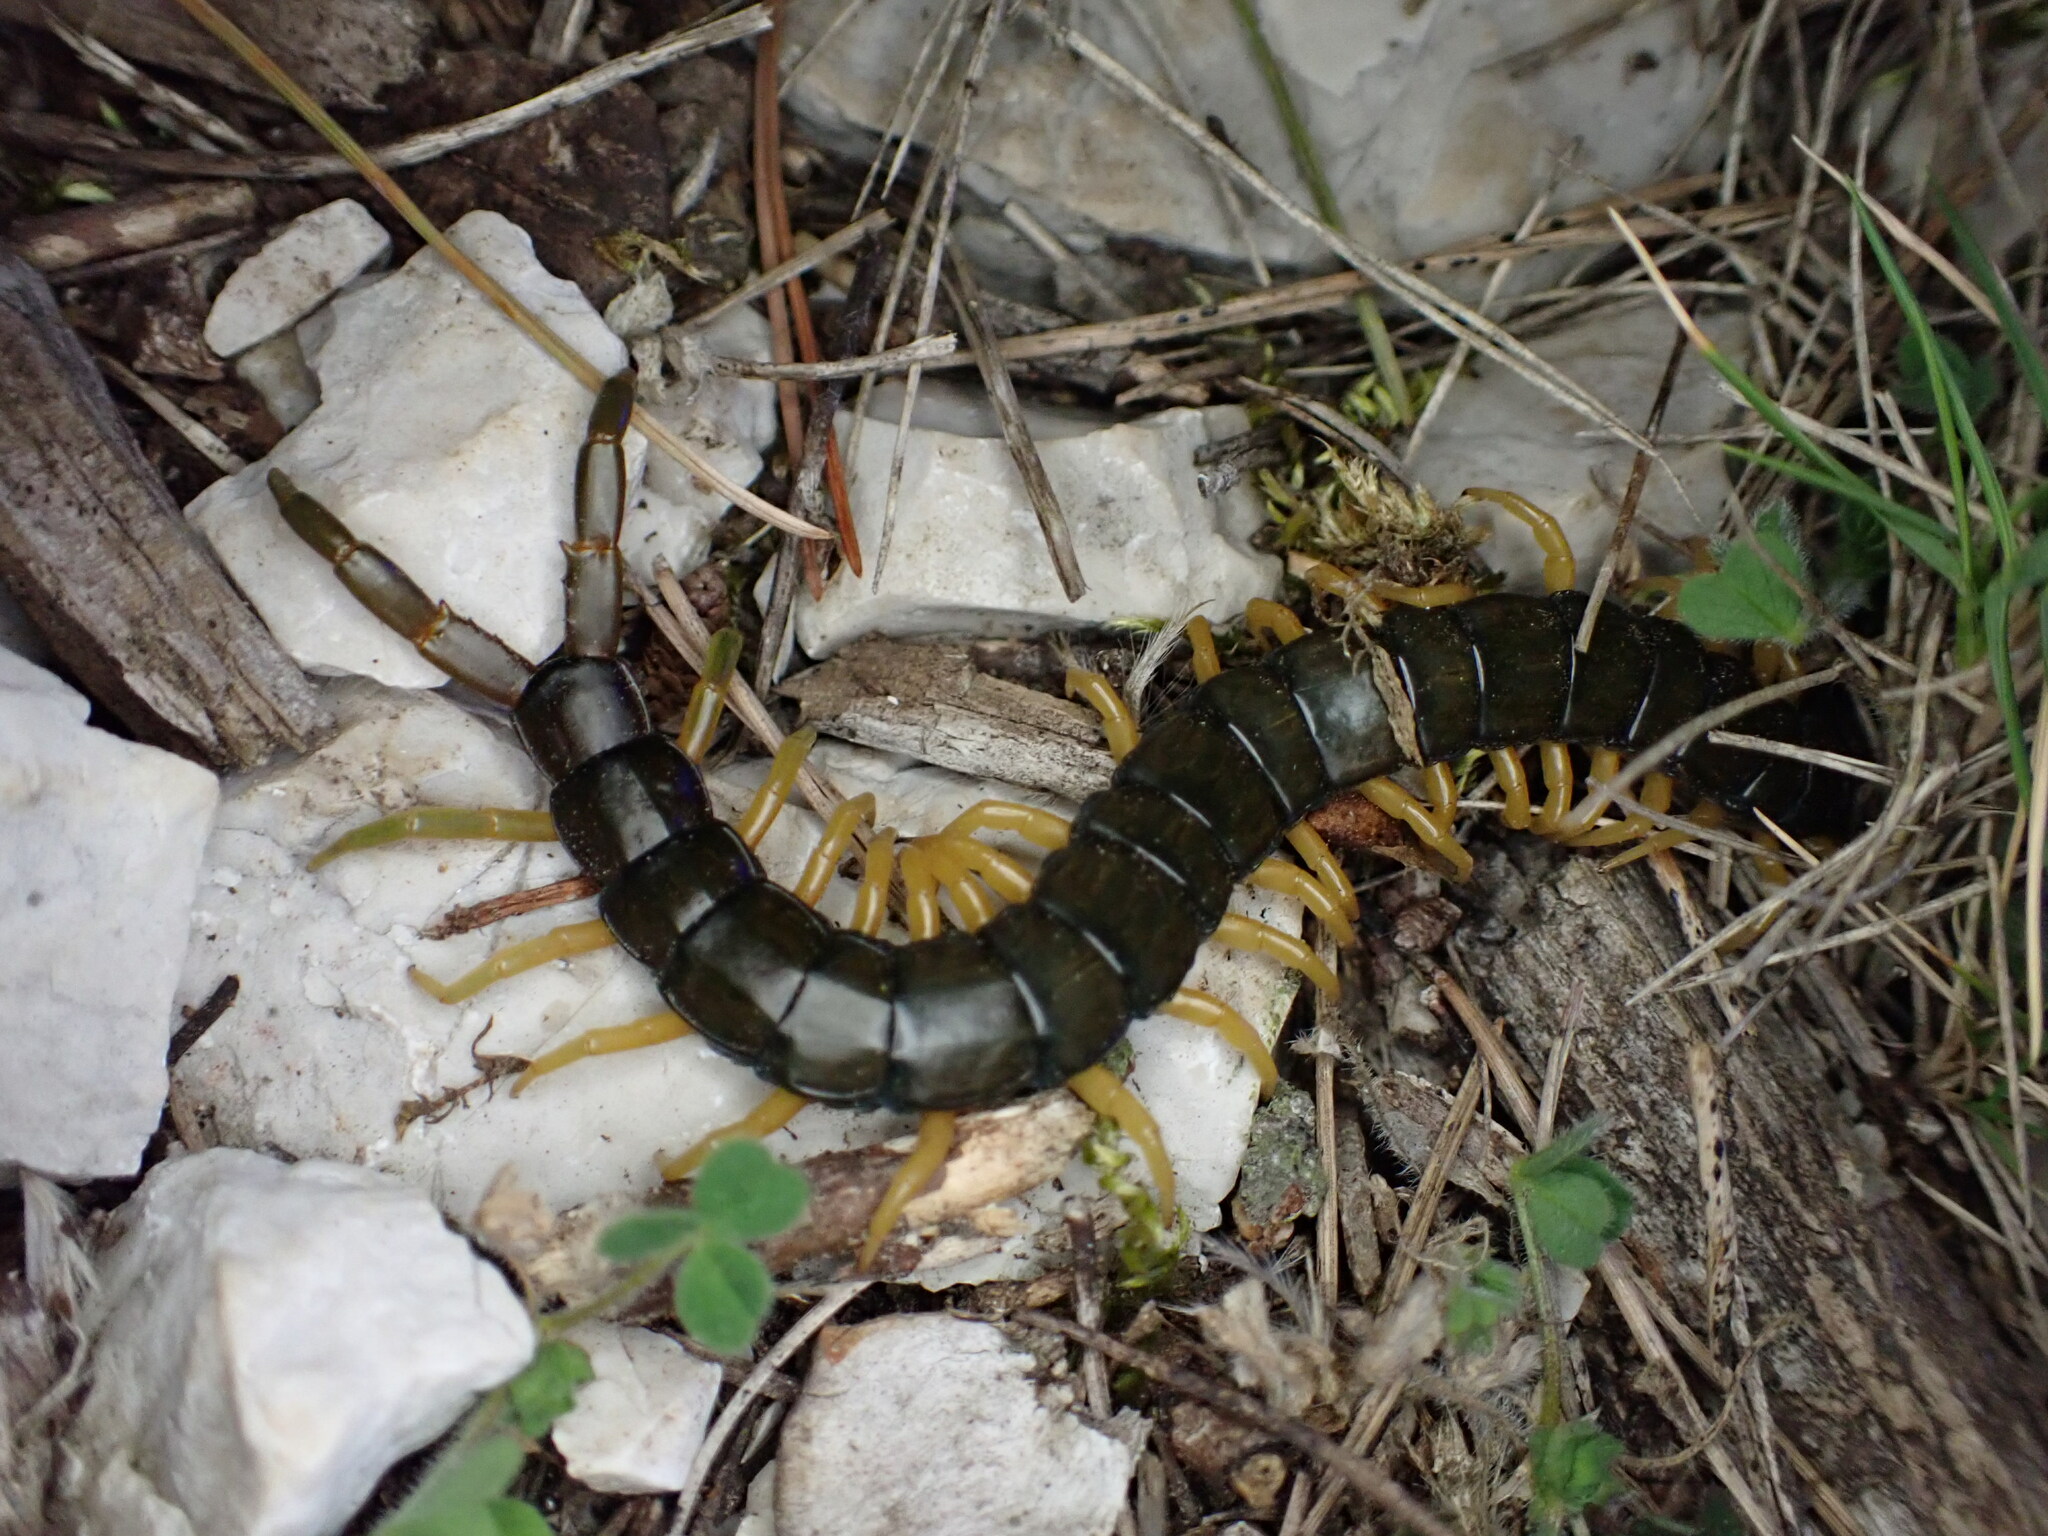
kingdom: Animalia
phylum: Arthropoda
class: Chilopoda
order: Scolopendromorpha
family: Scolopendridae
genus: Scolopendra
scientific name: Scolopendra cingulata
